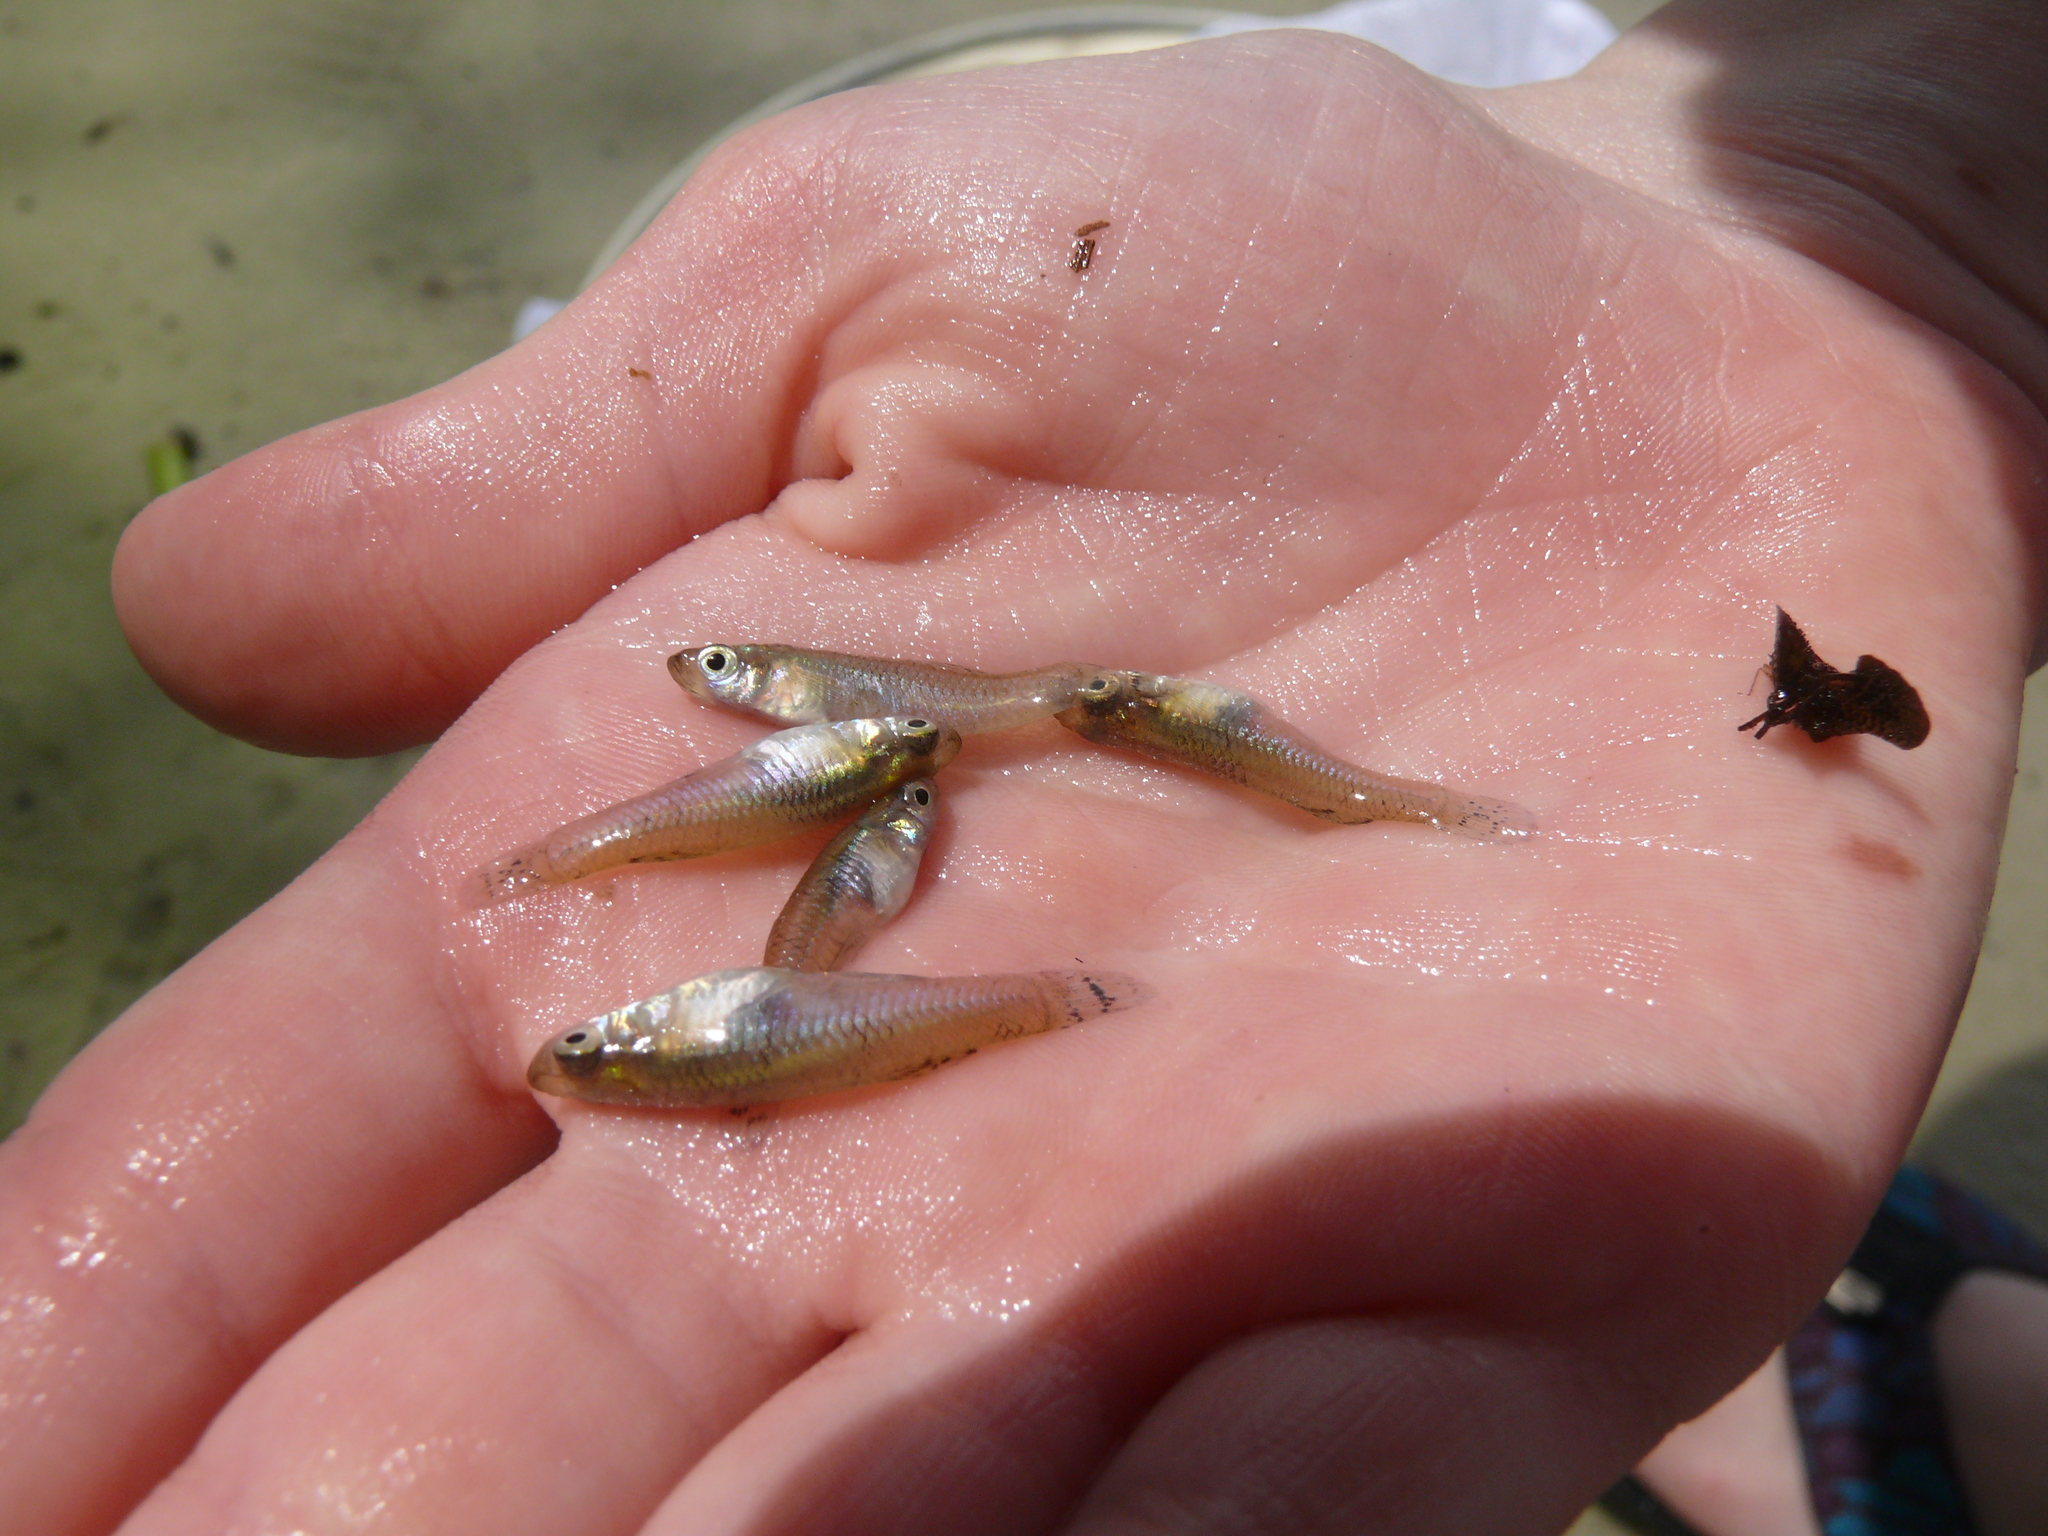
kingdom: Animalia
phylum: Chordata
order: Cyprinodontiformes
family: Poeciliidae
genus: Gambusia
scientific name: Gambusia holbrooki
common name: Eastern mosquitofish
